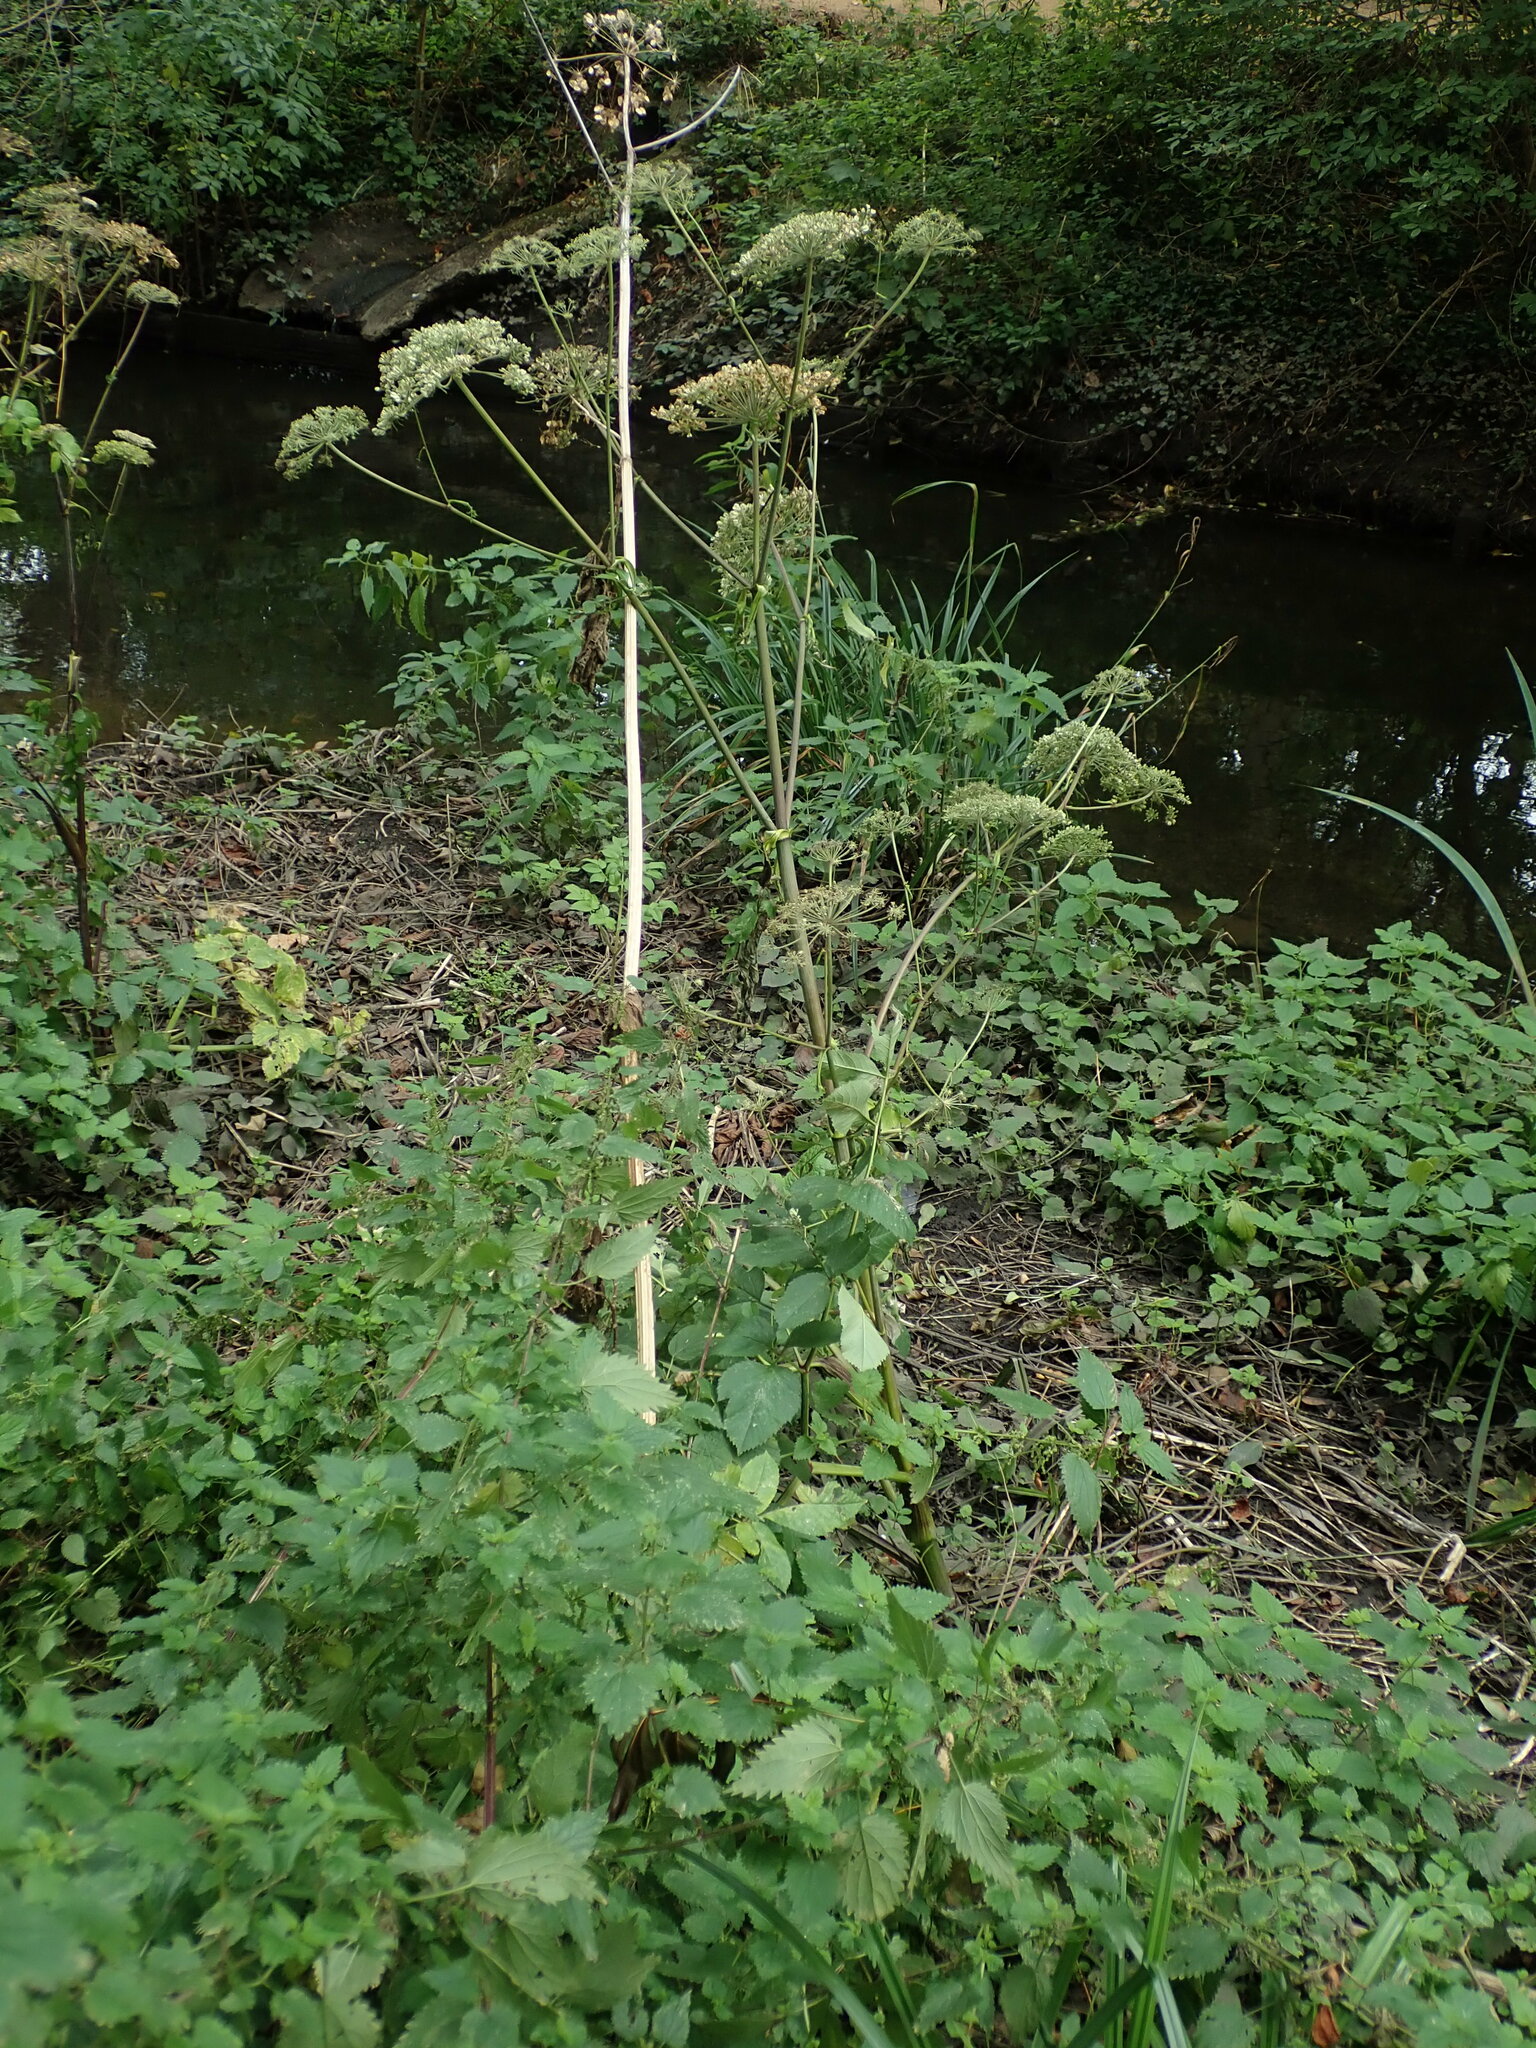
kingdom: Plantae
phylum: Tracheophyta
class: Magnoliopsida
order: Apiales
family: Apiaceae
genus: Angelica
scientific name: Angelica sylvestris
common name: Wild angelica
